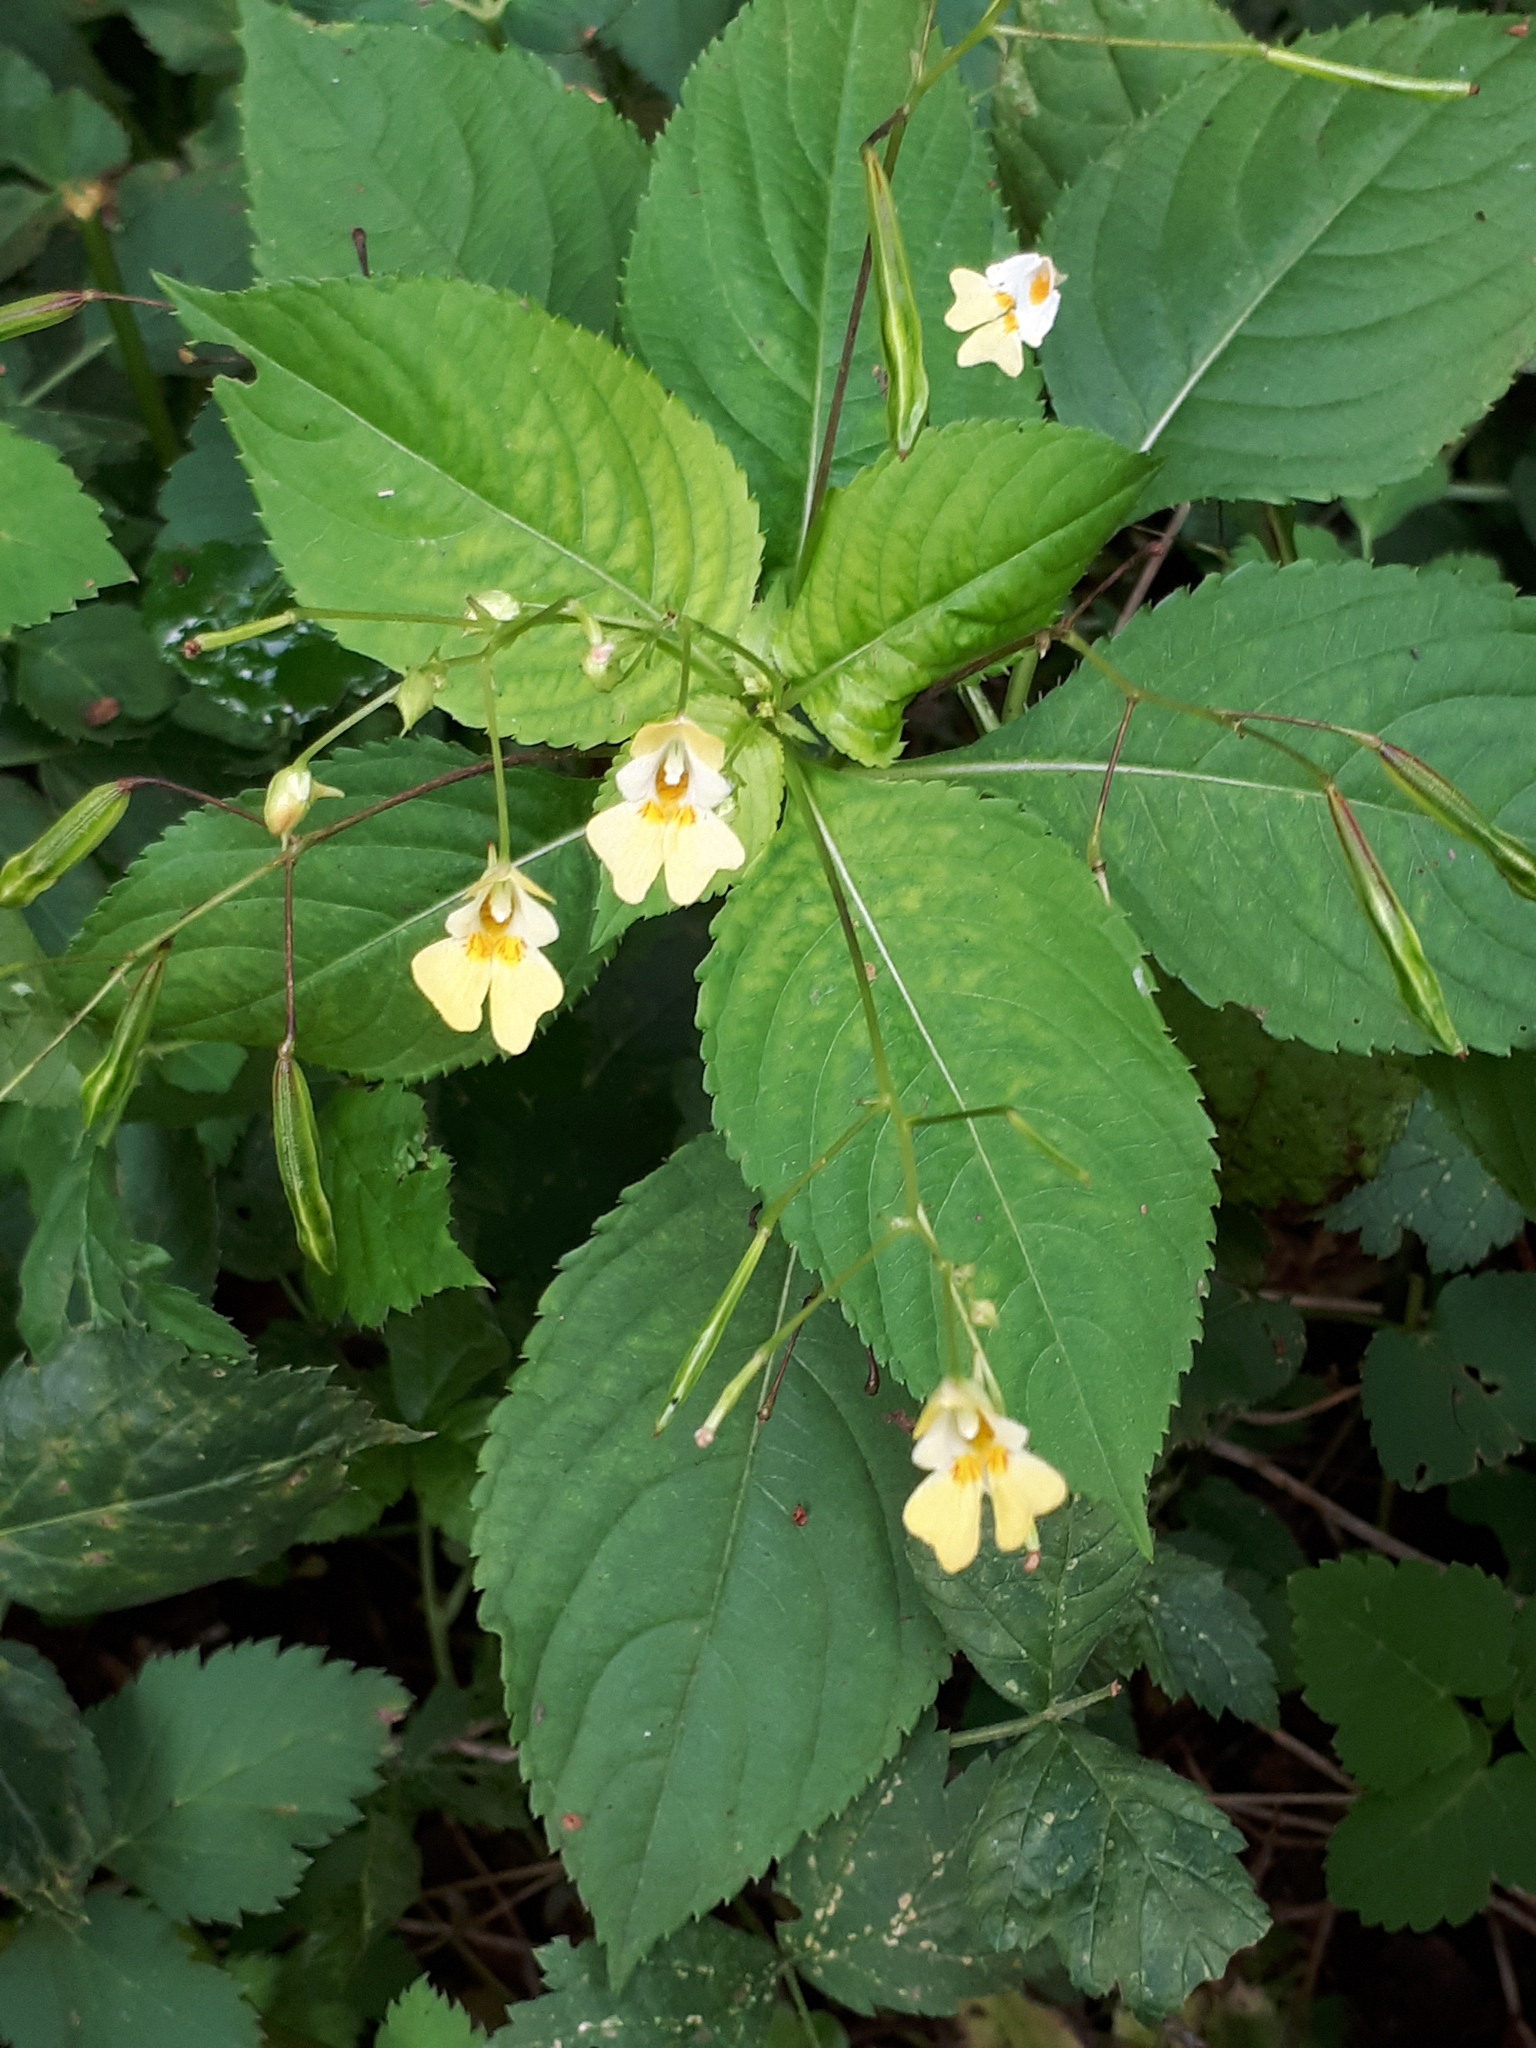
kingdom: Plantae
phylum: Tracheophyta
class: Magnoliopsida
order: Ericales
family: Balsaminaceae
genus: Impatiens
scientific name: Impatiens parviflora
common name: Small balsam
